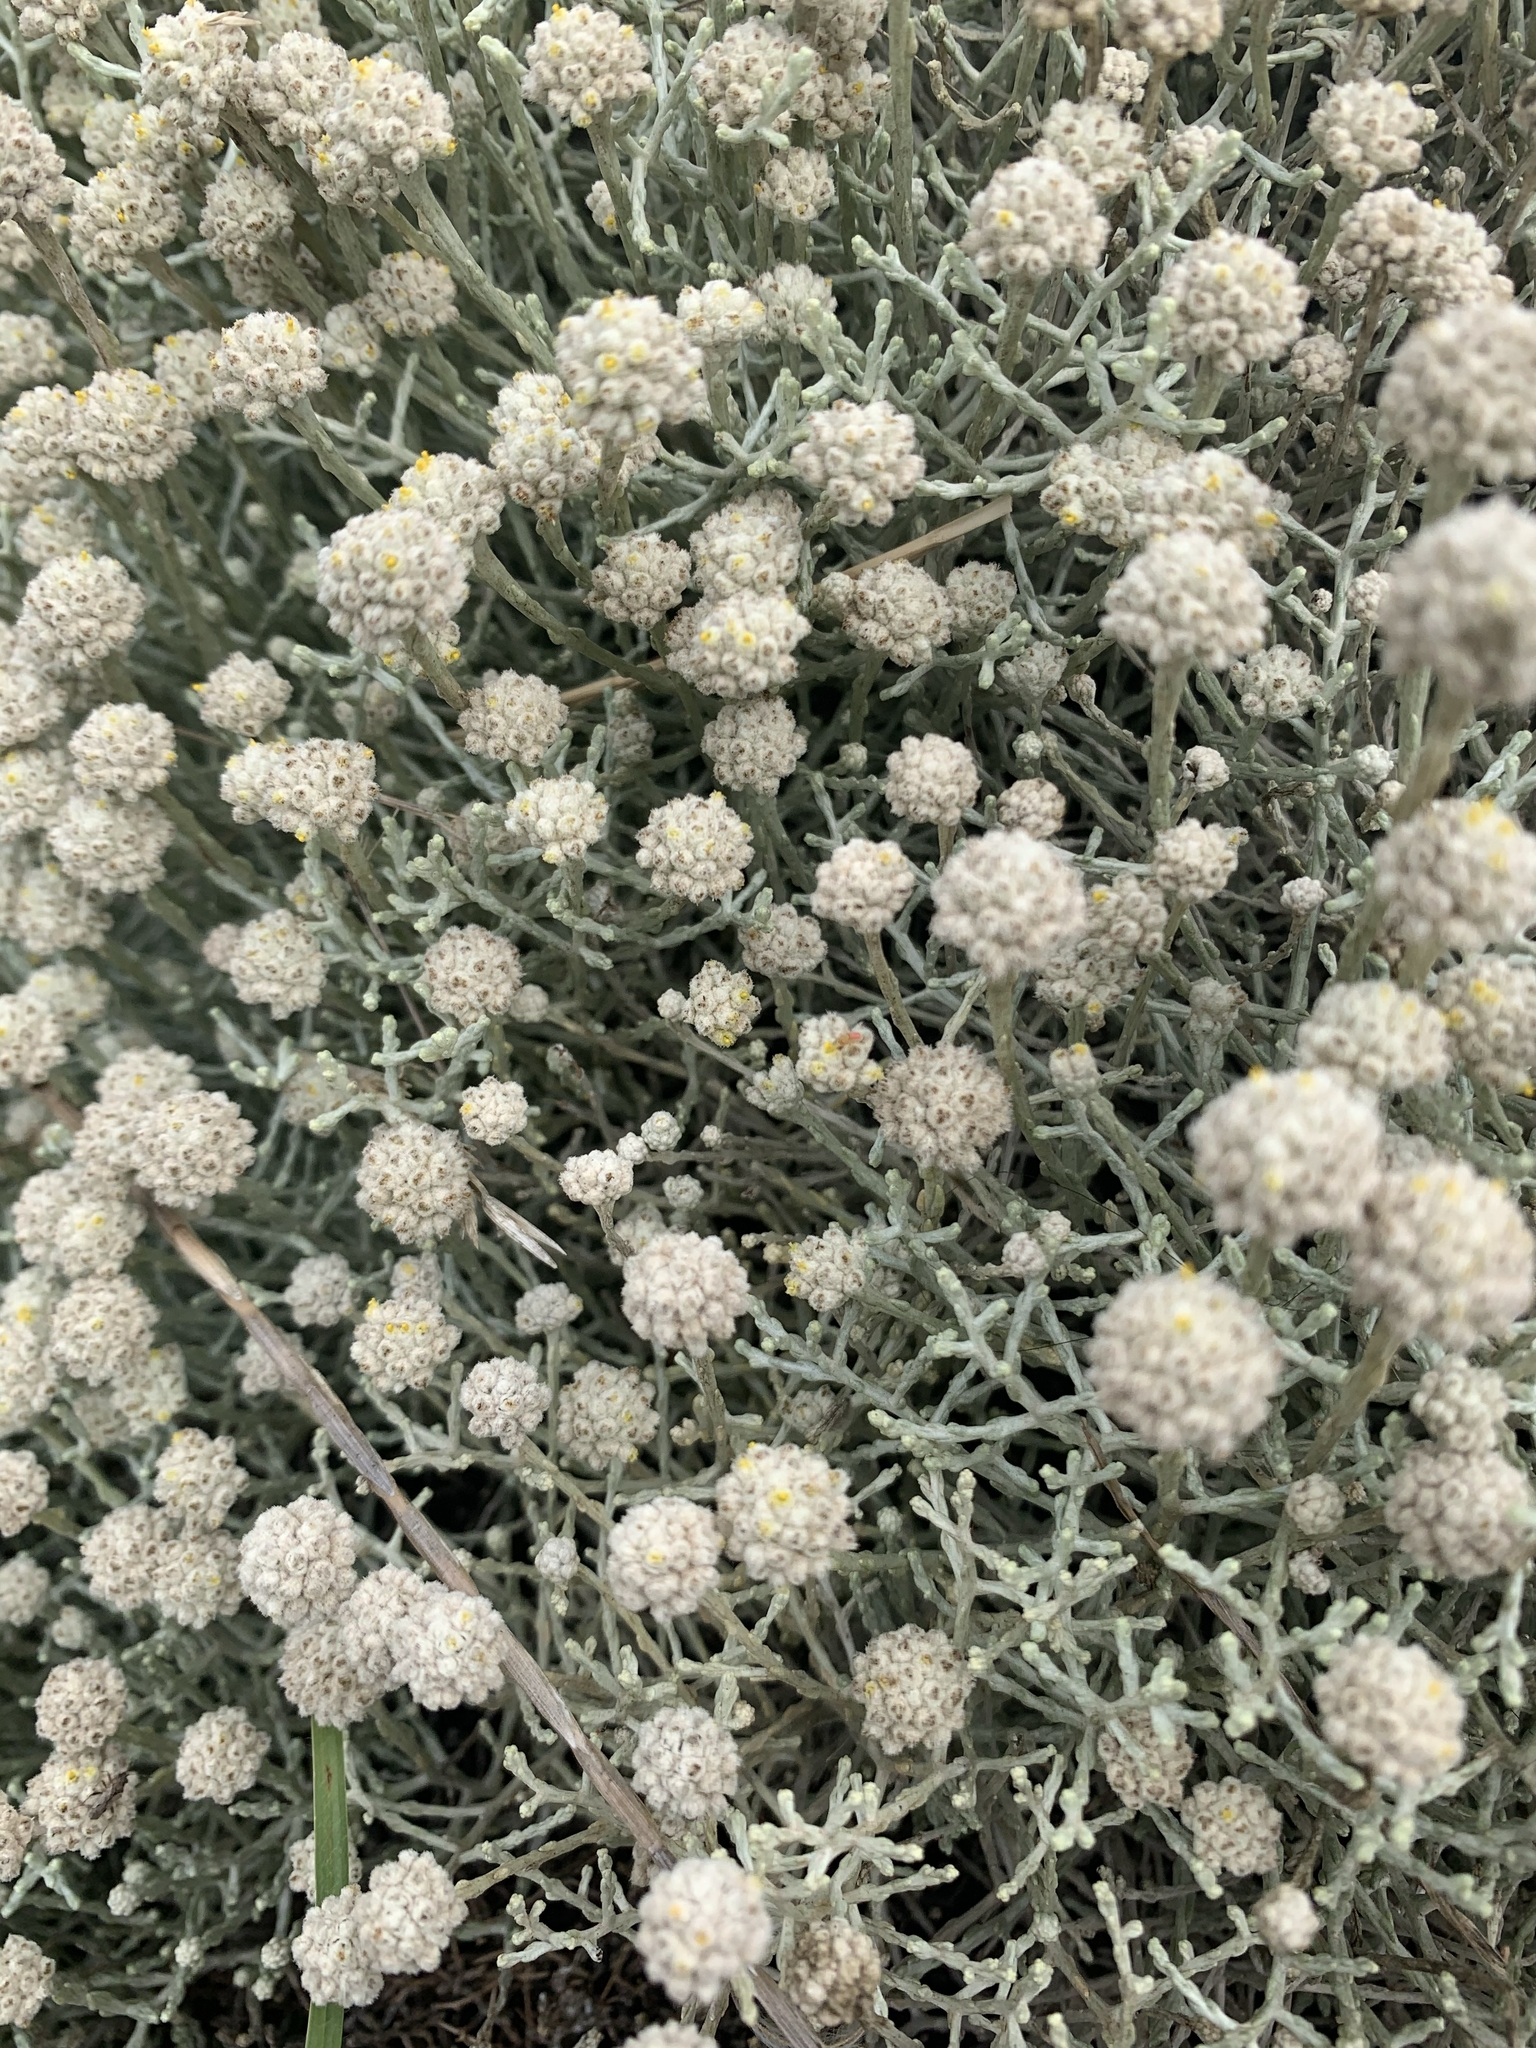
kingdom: Plantae
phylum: Tracheophyta
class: Magnoliopsida
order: Asterales
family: Asteraceae
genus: Calocephalus
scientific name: Calocephalus brownii
